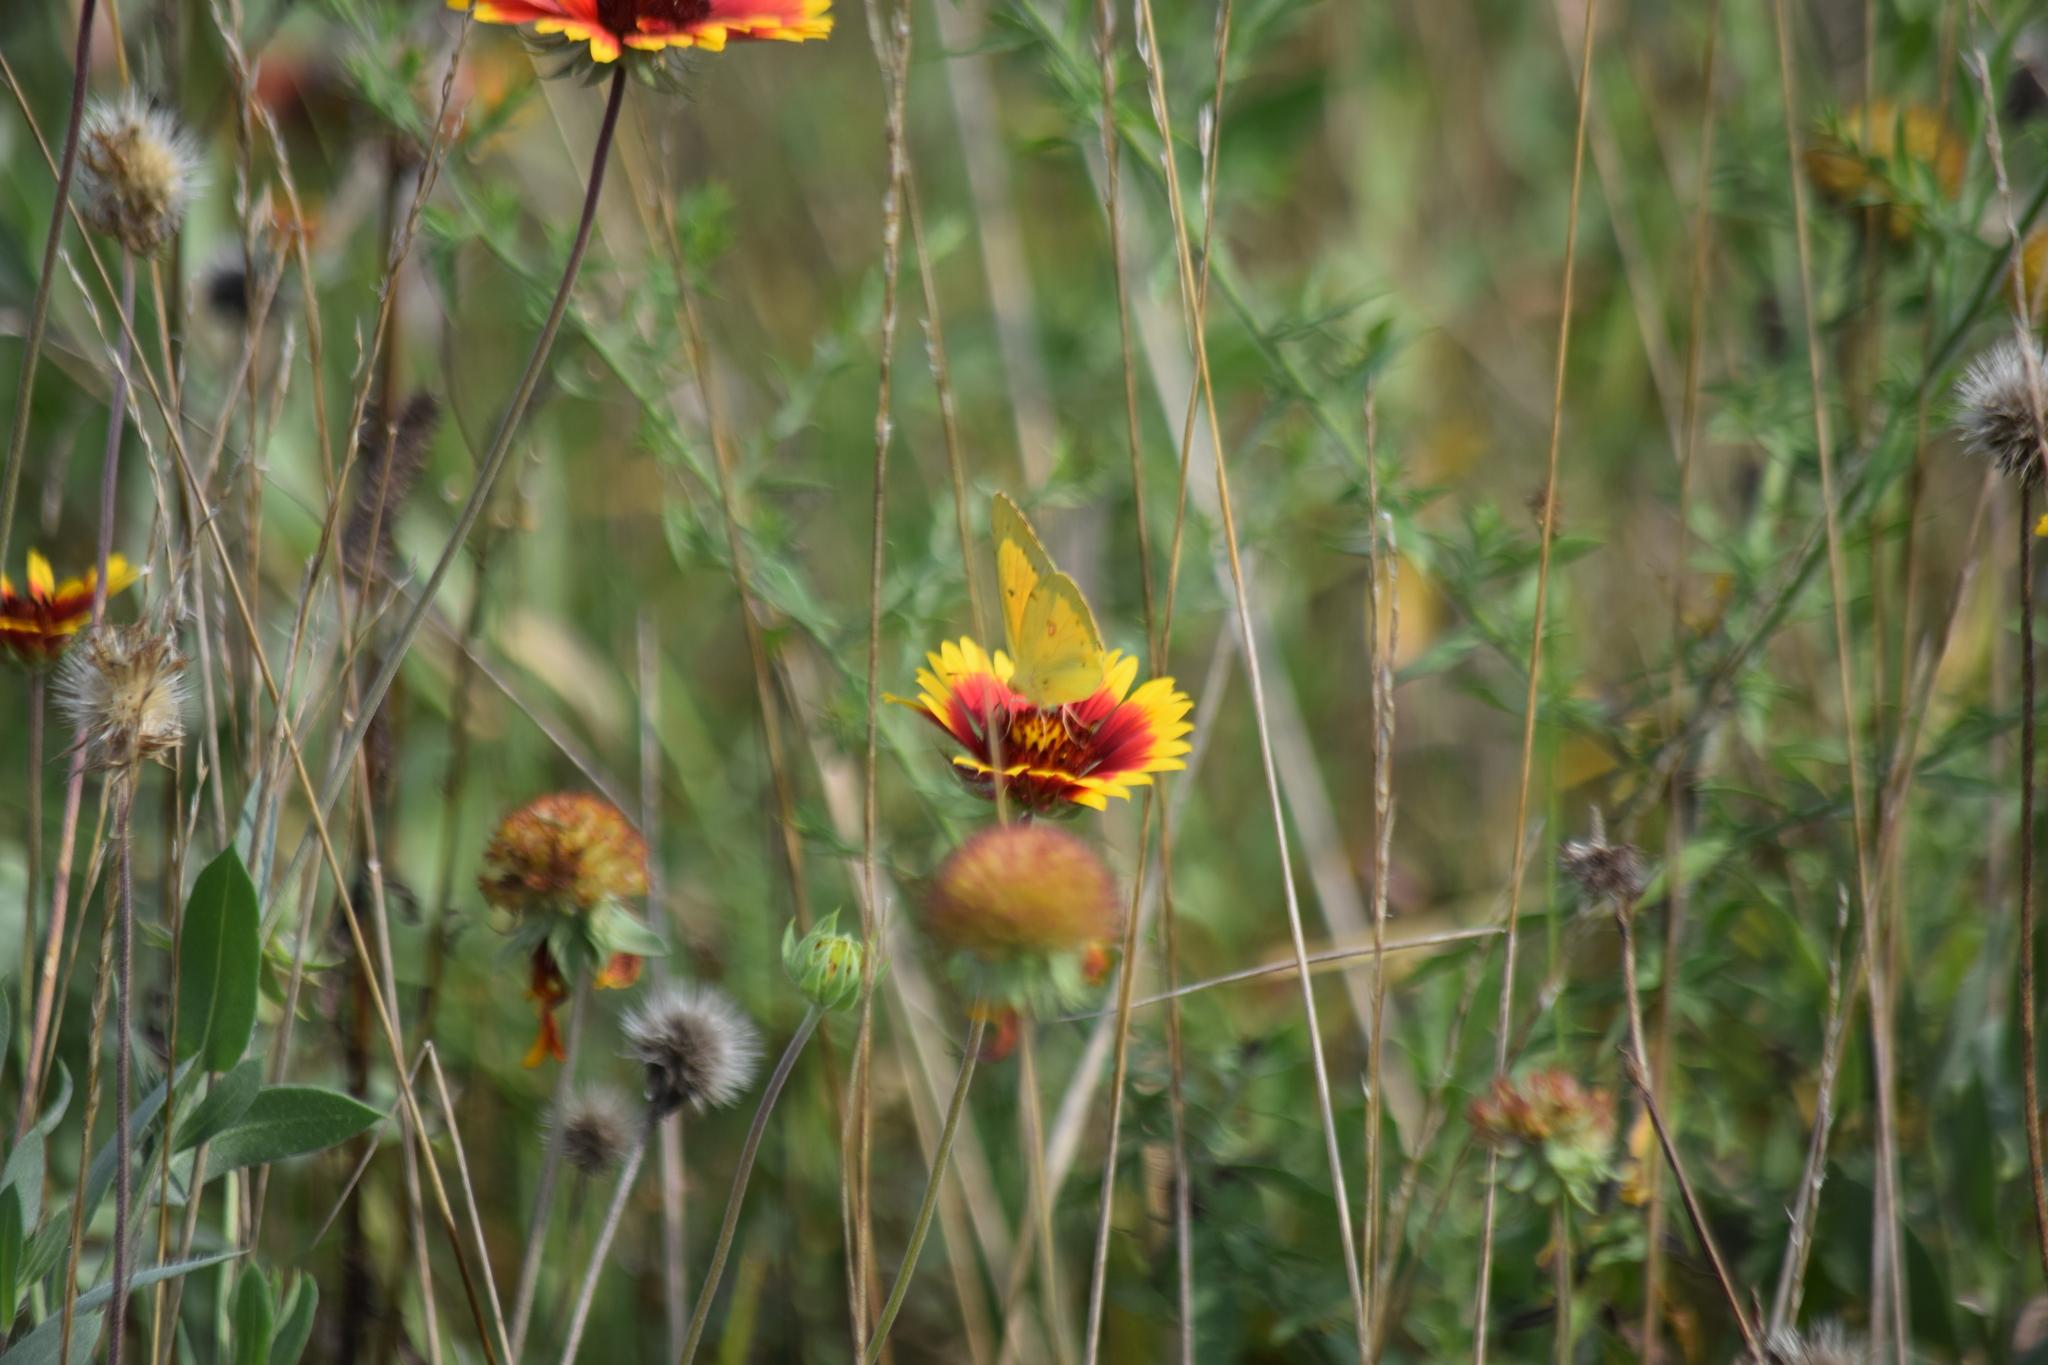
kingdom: Animalia
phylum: Arthropoda
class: Insecta
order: Lepidoptera
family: Pieridae
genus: Colias
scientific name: Colias eurytheme
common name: Alfalfa butterfly
